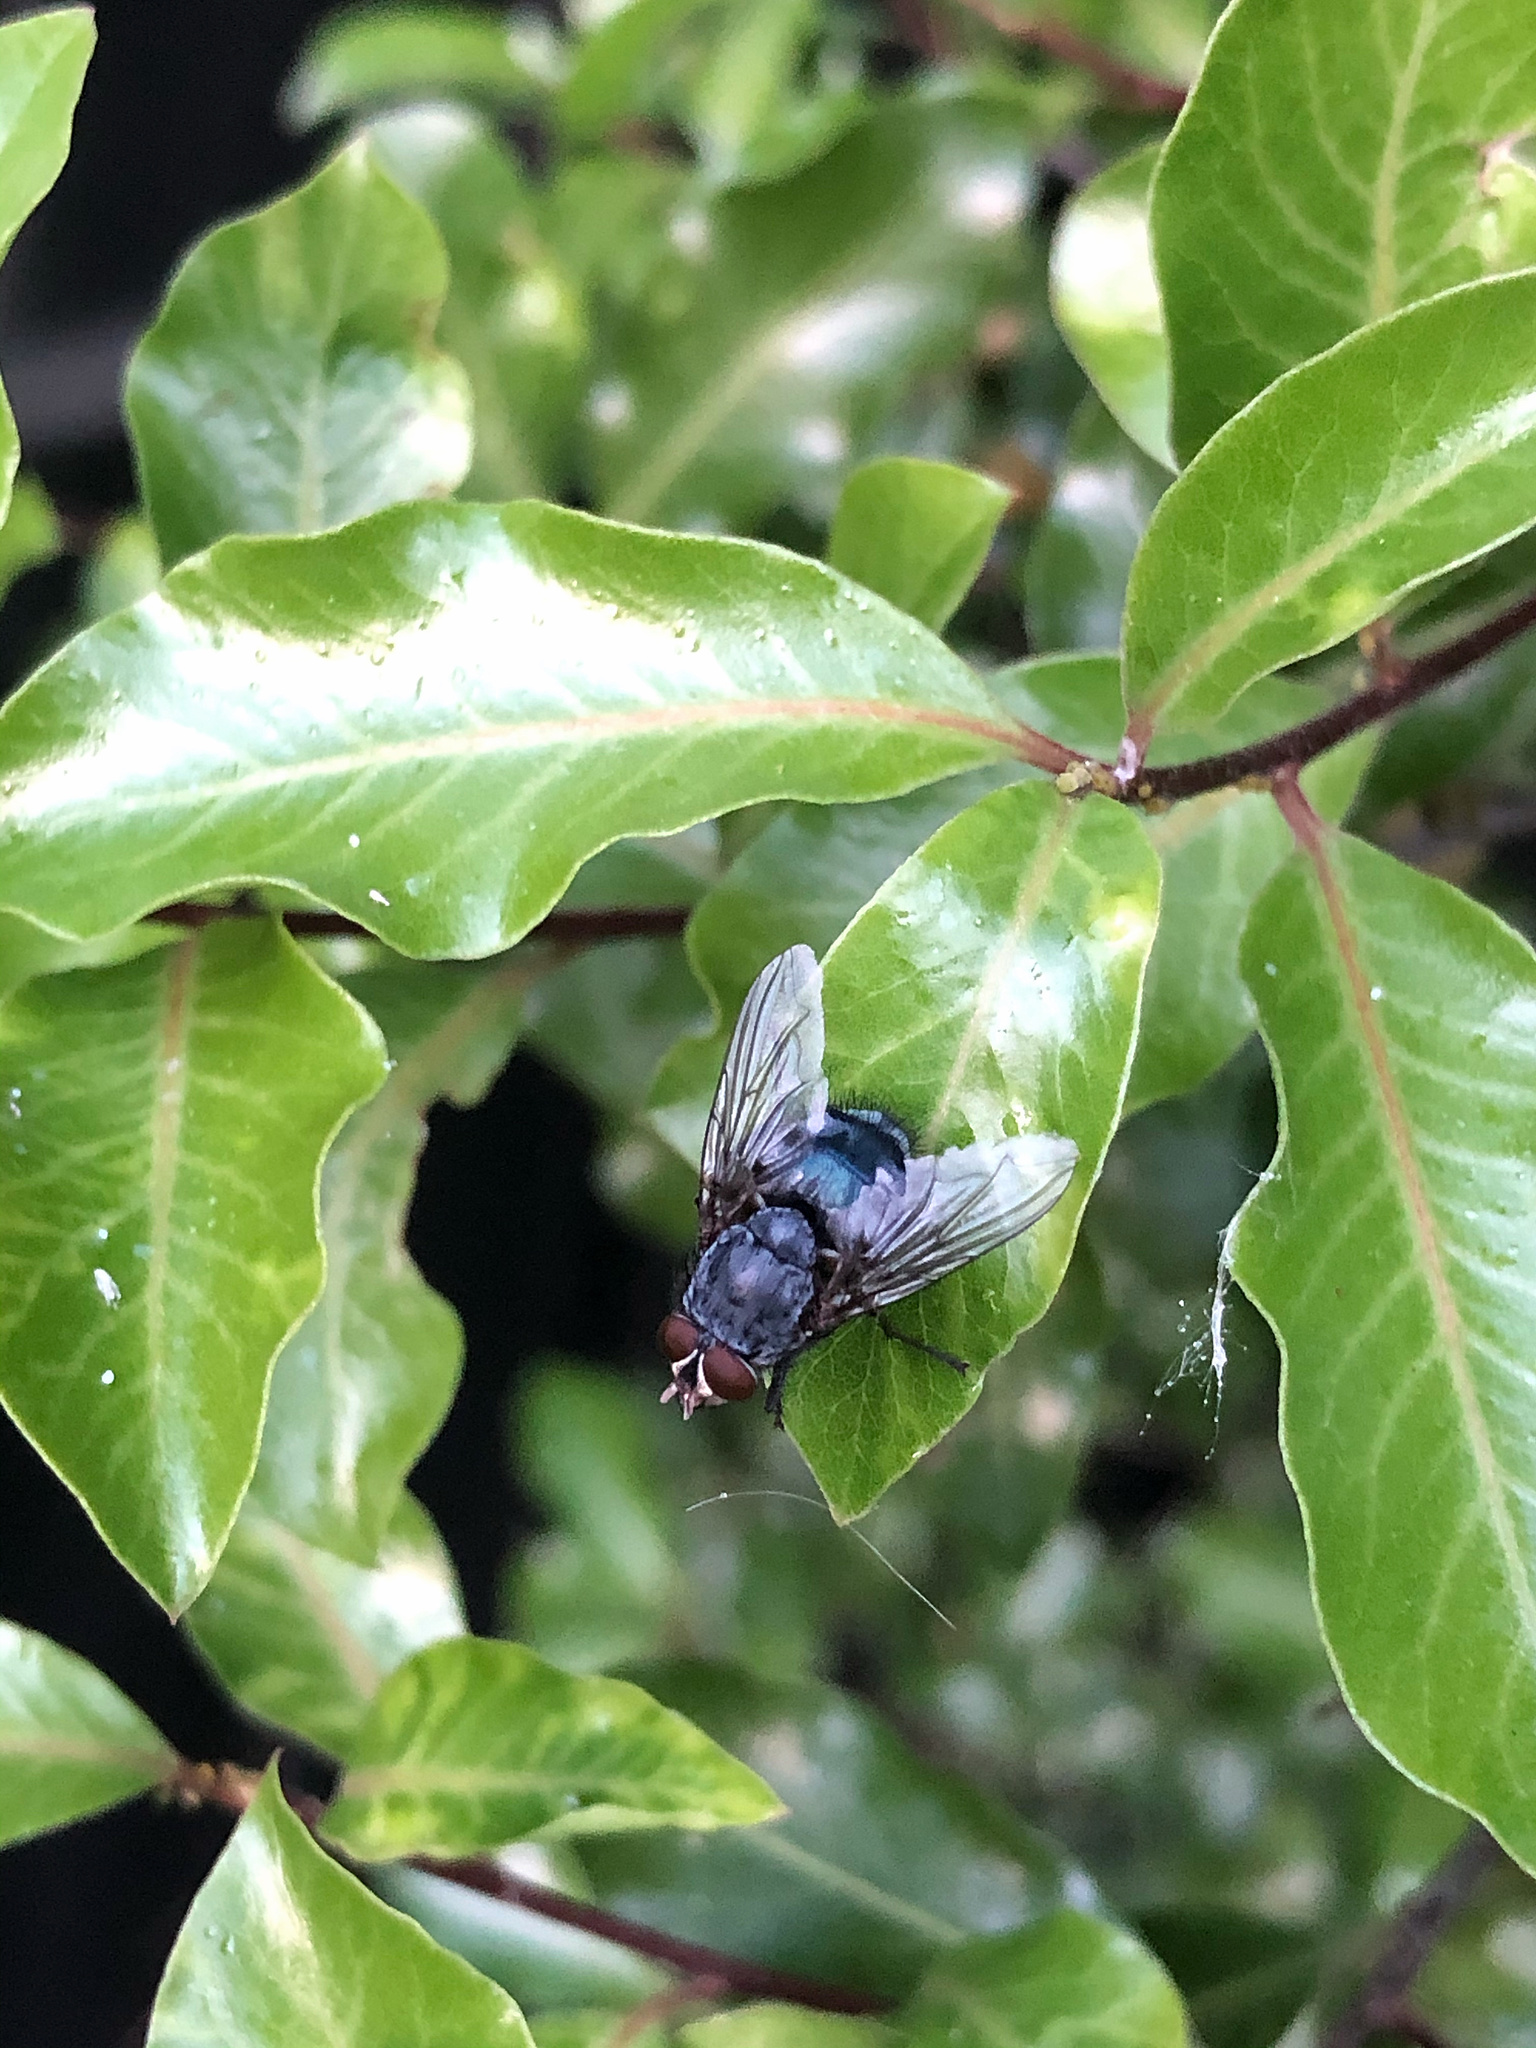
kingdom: Animalia
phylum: Arthropoda
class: Insecta
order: Diptera
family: Calliphoridae
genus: Calliphora
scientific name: Calliphora vicina
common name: Common blow flie
